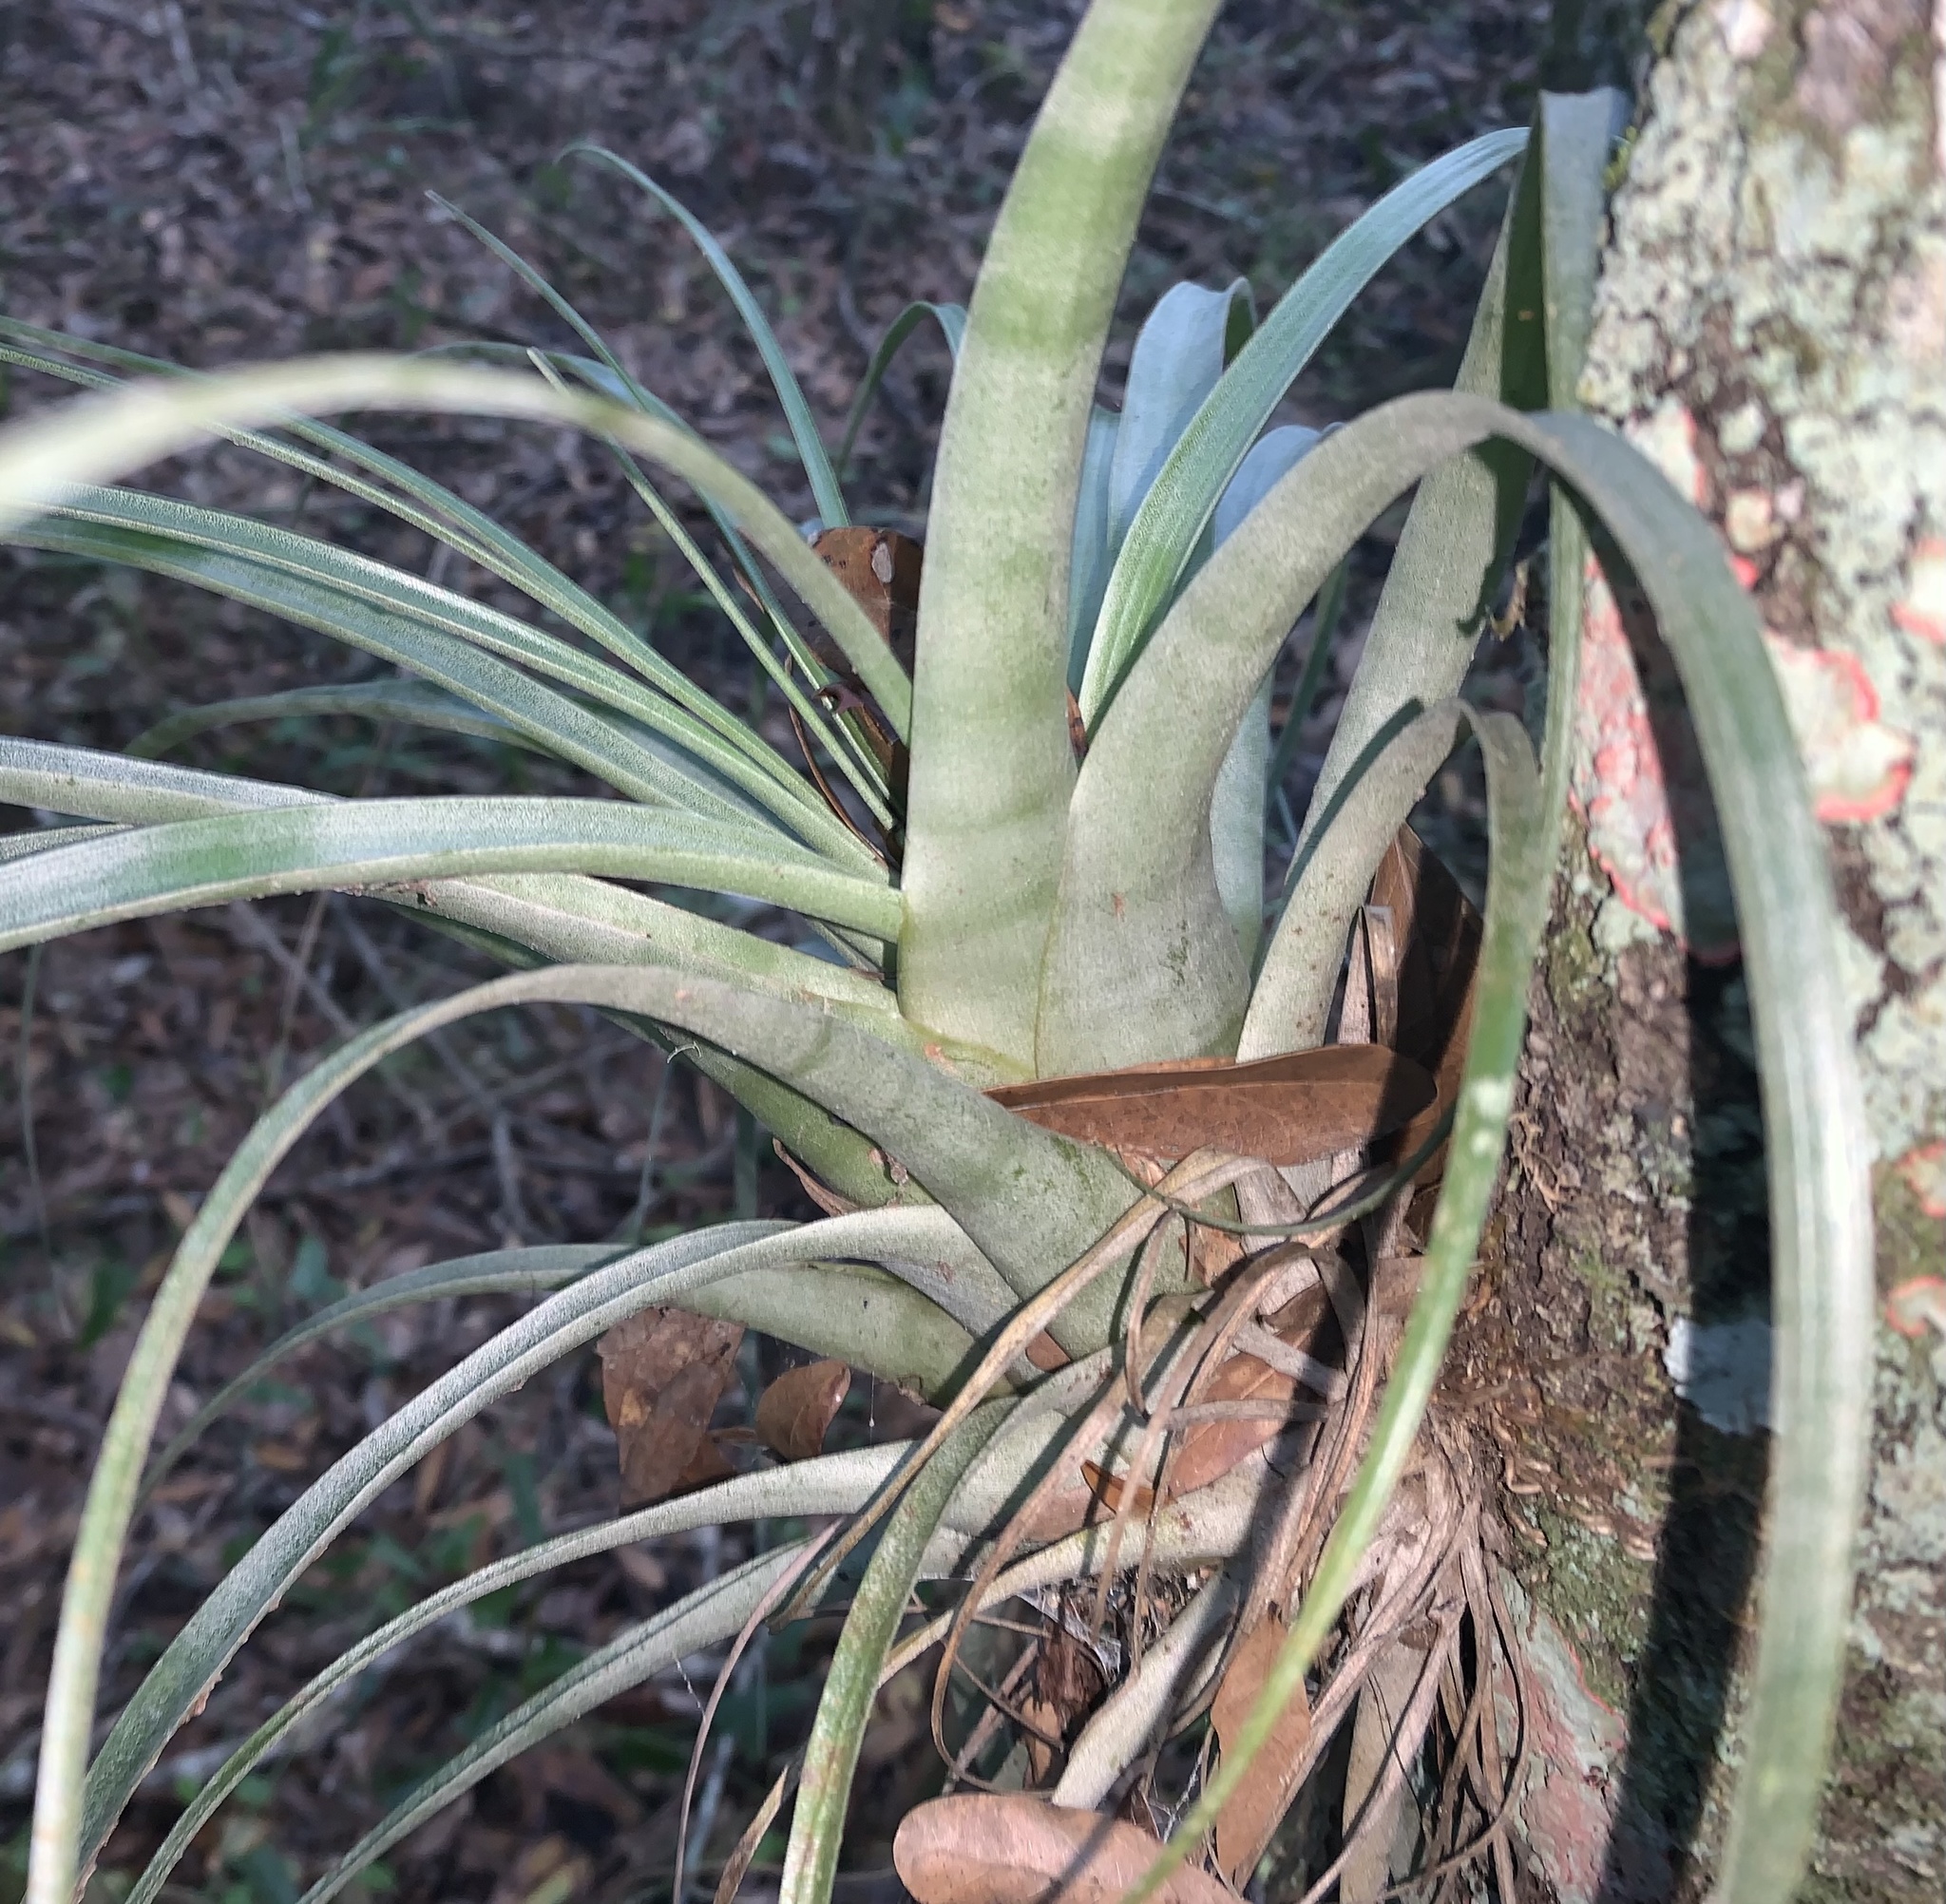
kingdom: Plantae
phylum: Tracheophyta
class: Liliopsida
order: Poales
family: Bromeliaceae
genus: Tillandsia
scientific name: Tillandsia utriculata
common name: Wild pine
